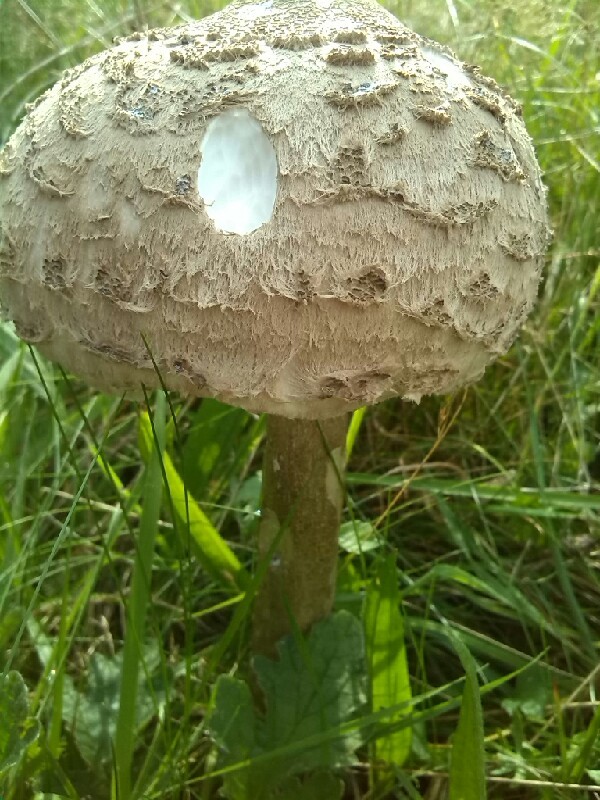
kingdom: Fungi
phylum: Basidiomycota
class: Agaricomycetes
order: Agaricales
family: Agaricaceae
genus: Macrolepiota
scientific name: Macrolepiota procera
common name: Parasol
